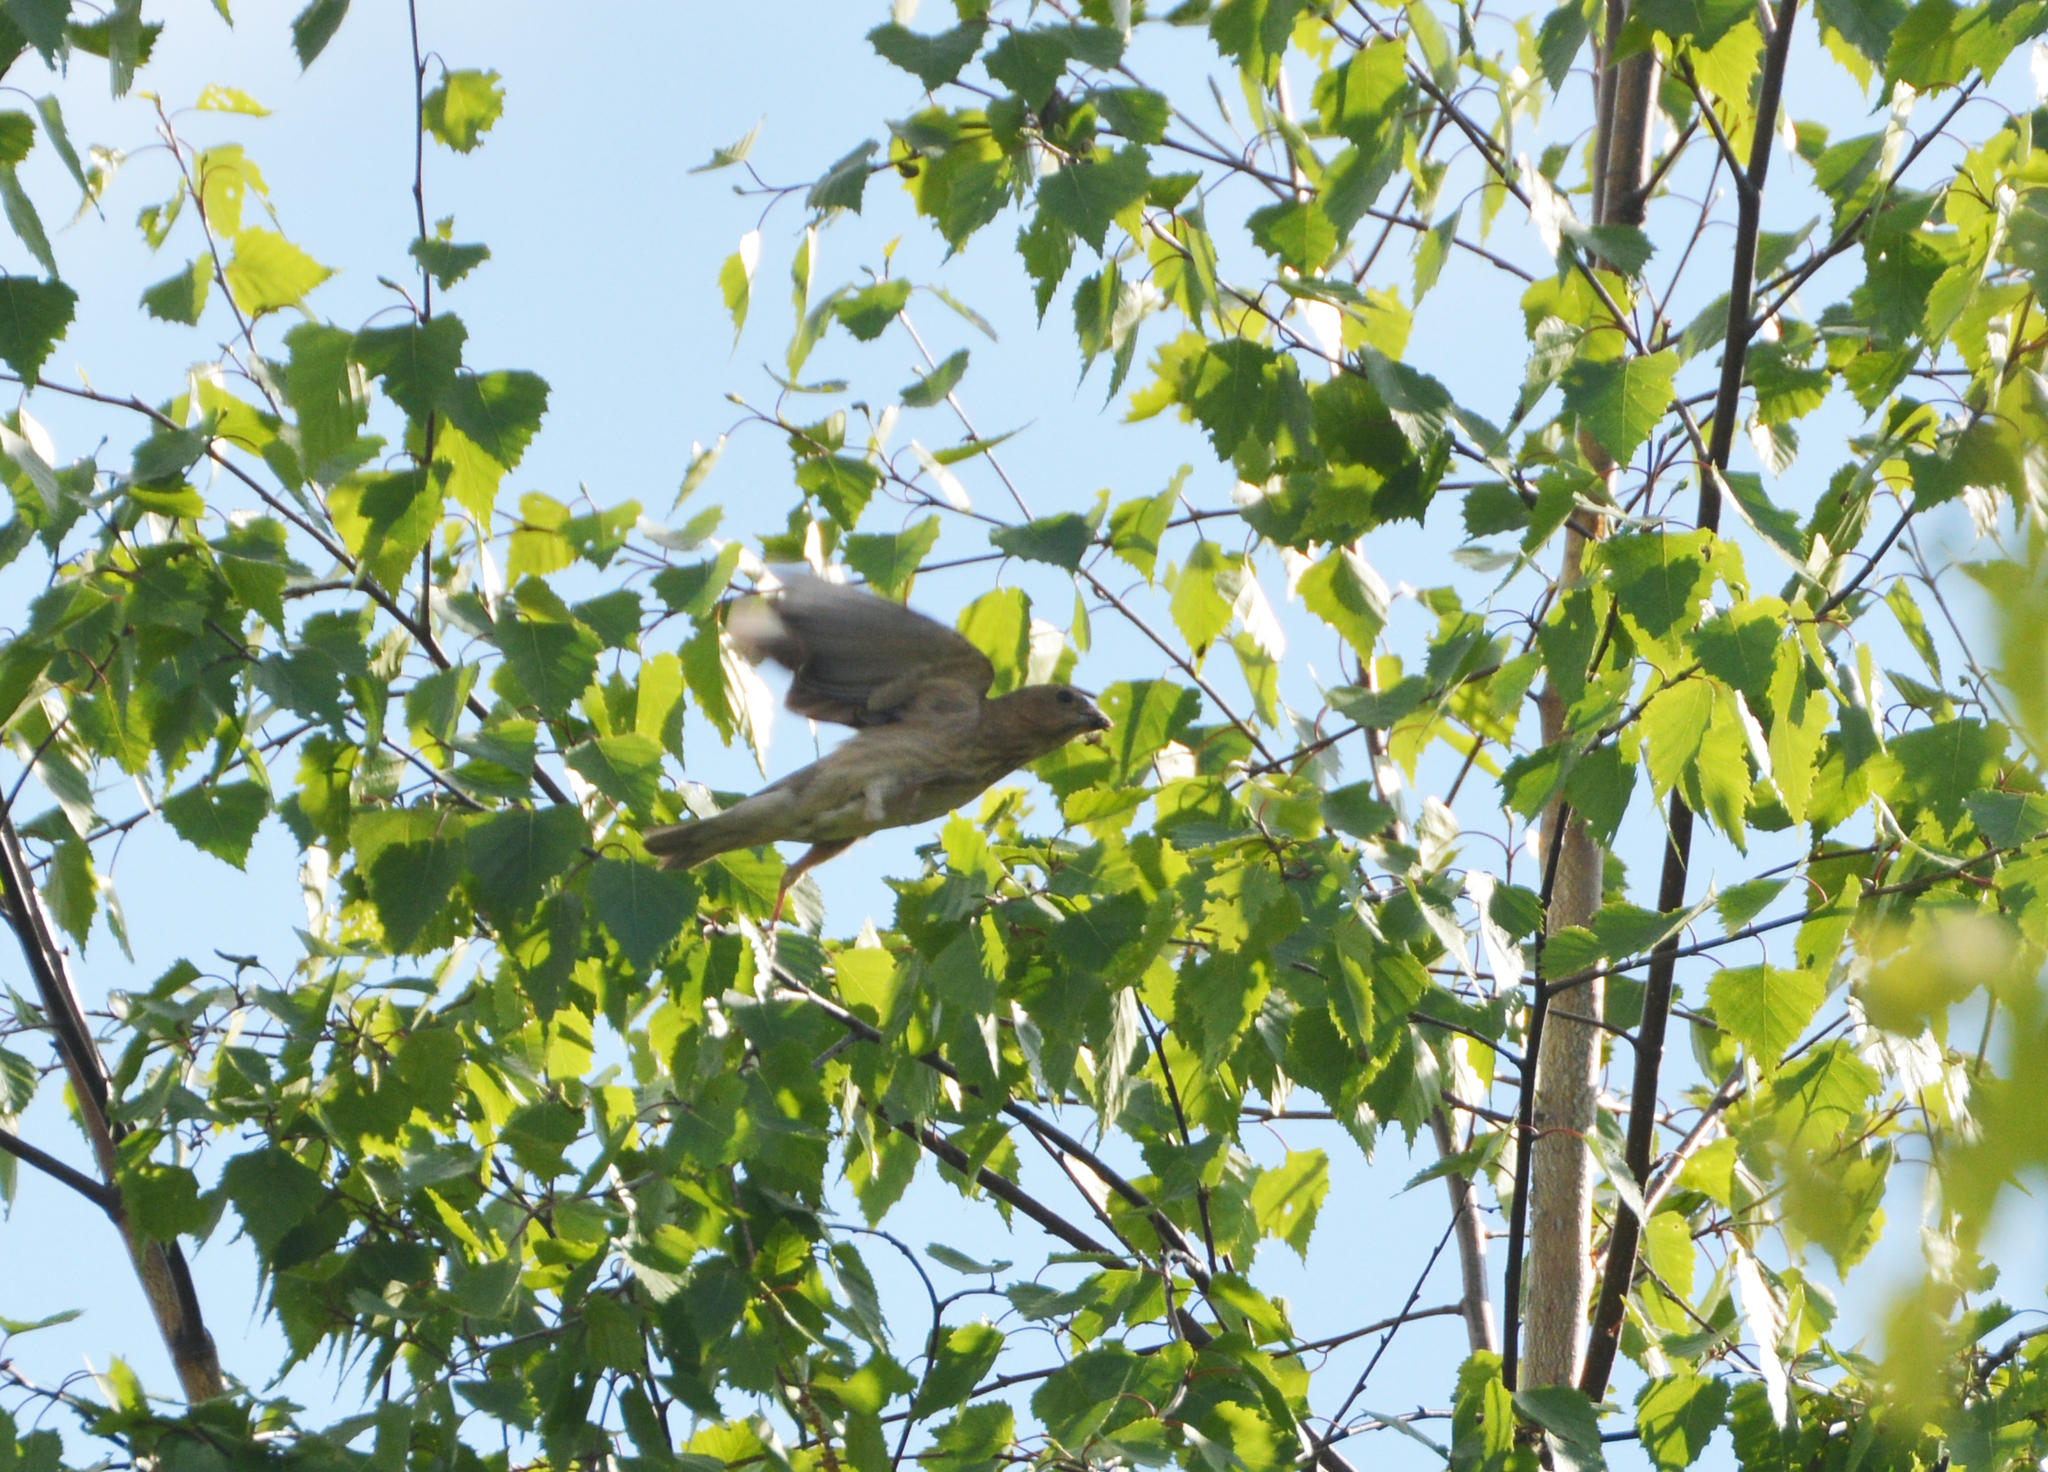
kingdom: Animalia
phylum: Chordata
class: Aves
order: Passeriformes
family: Fringillidae
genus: Carpodacus
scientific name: Carpodacus erythrinus
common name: Common rosefinch
